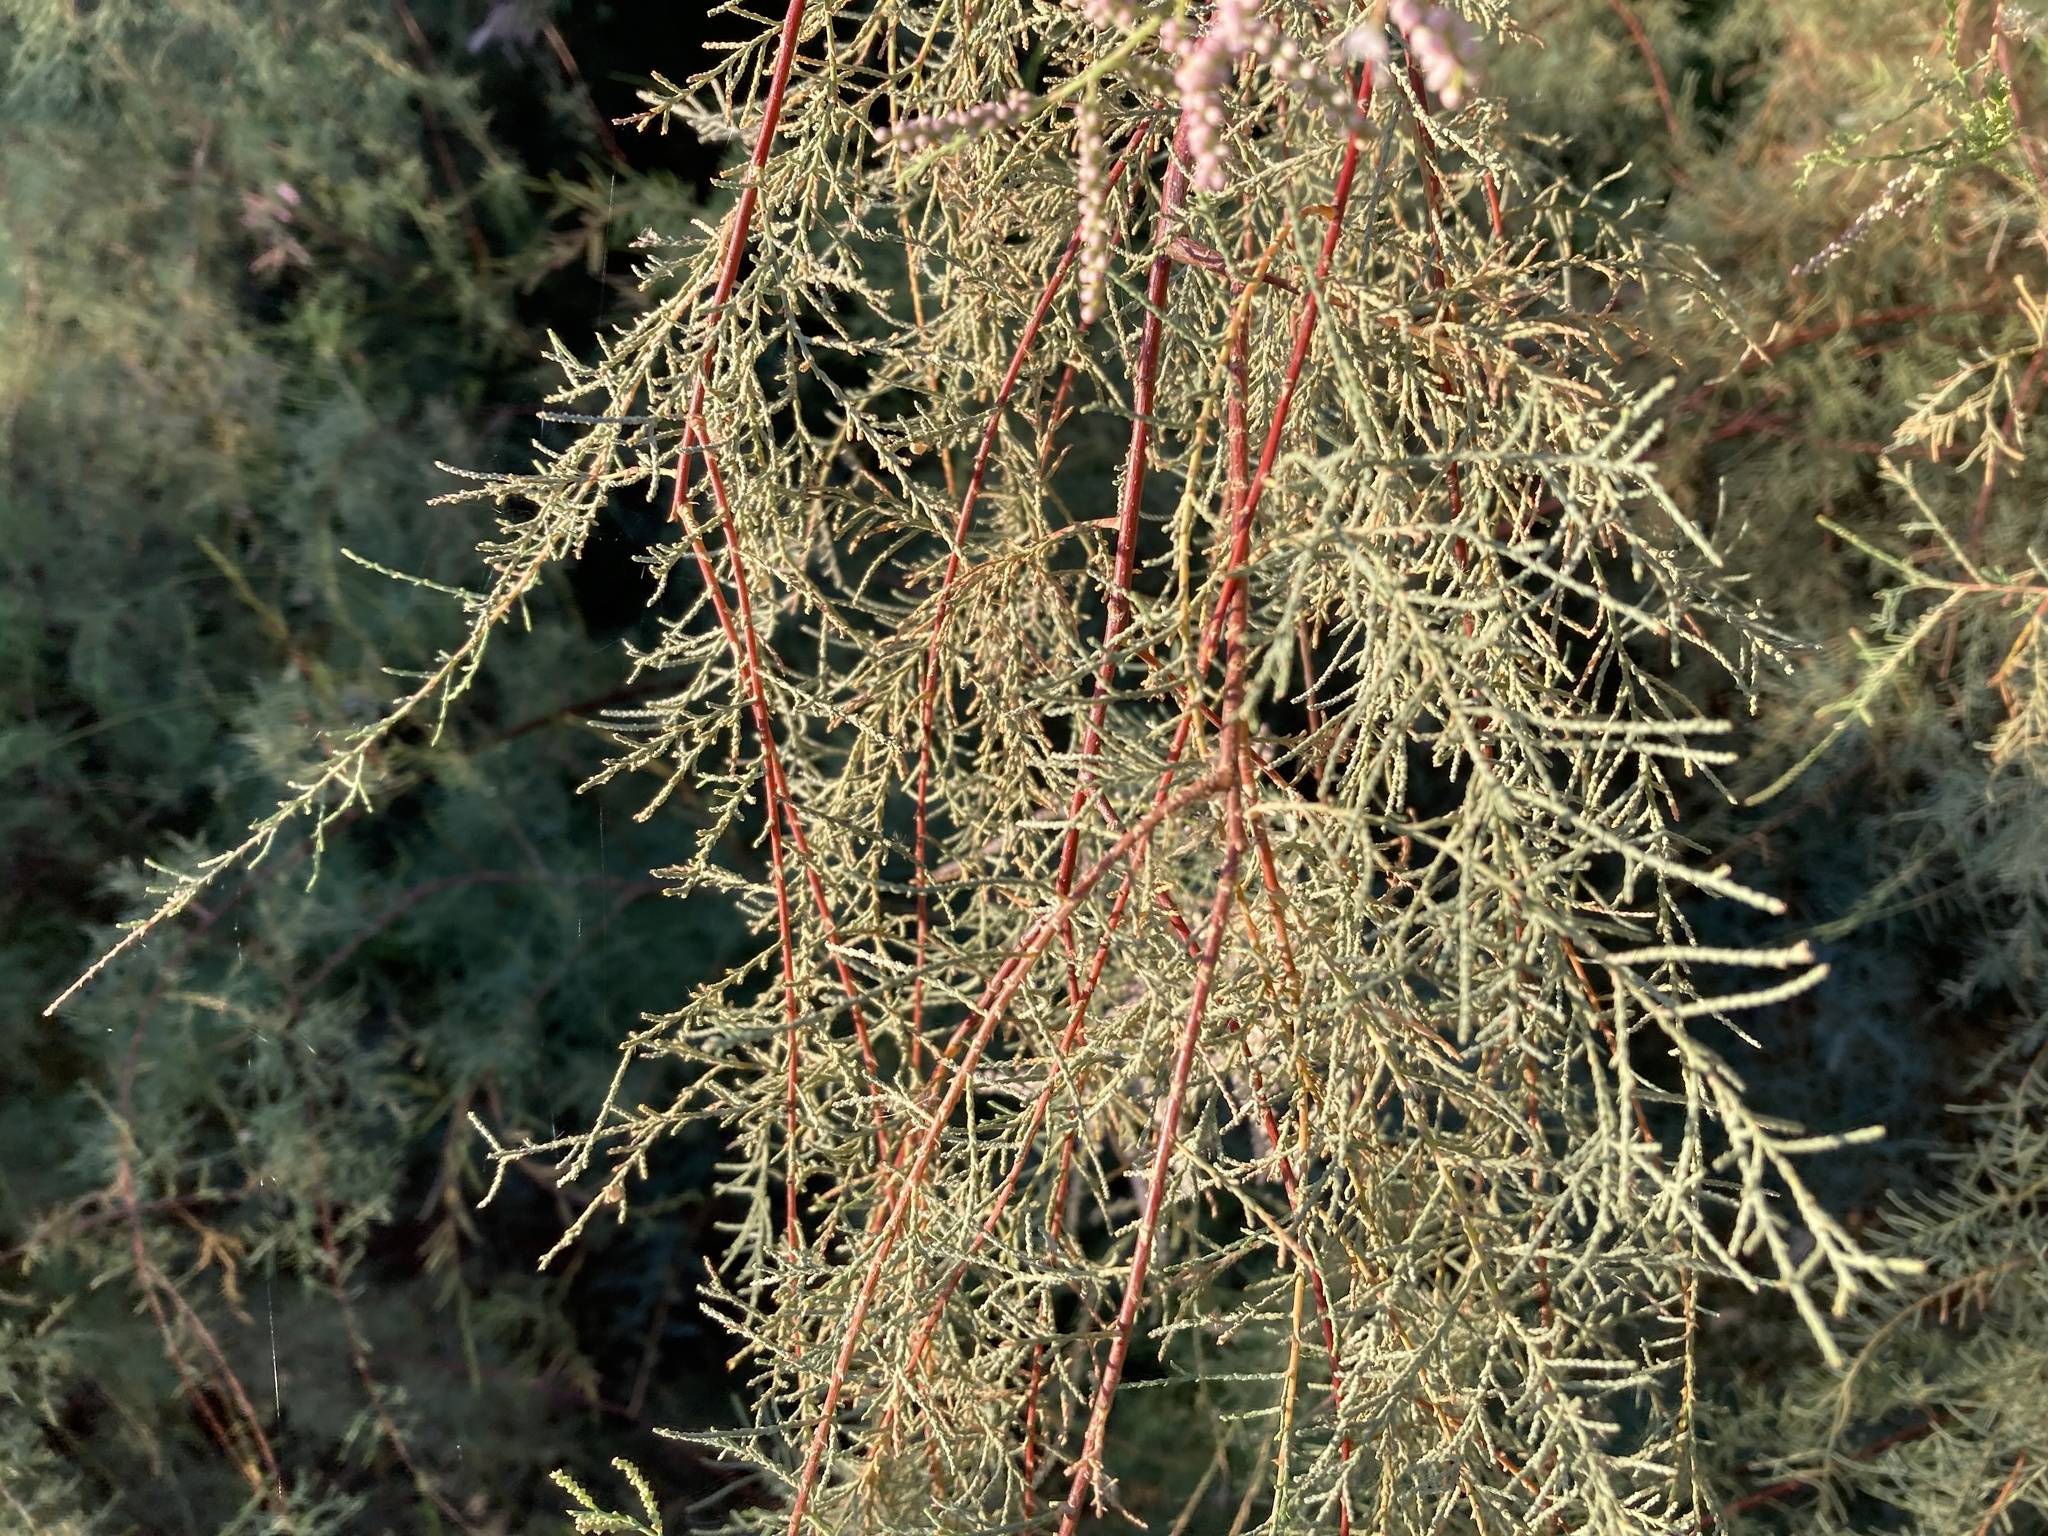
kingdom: Plantae
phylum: Tracheophyta
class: Magnoliopsida
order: Caryophyllales
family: Tamaricaceae
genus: Tamarix
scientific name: Tamarix ramosissima
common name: Pink tamarisk
